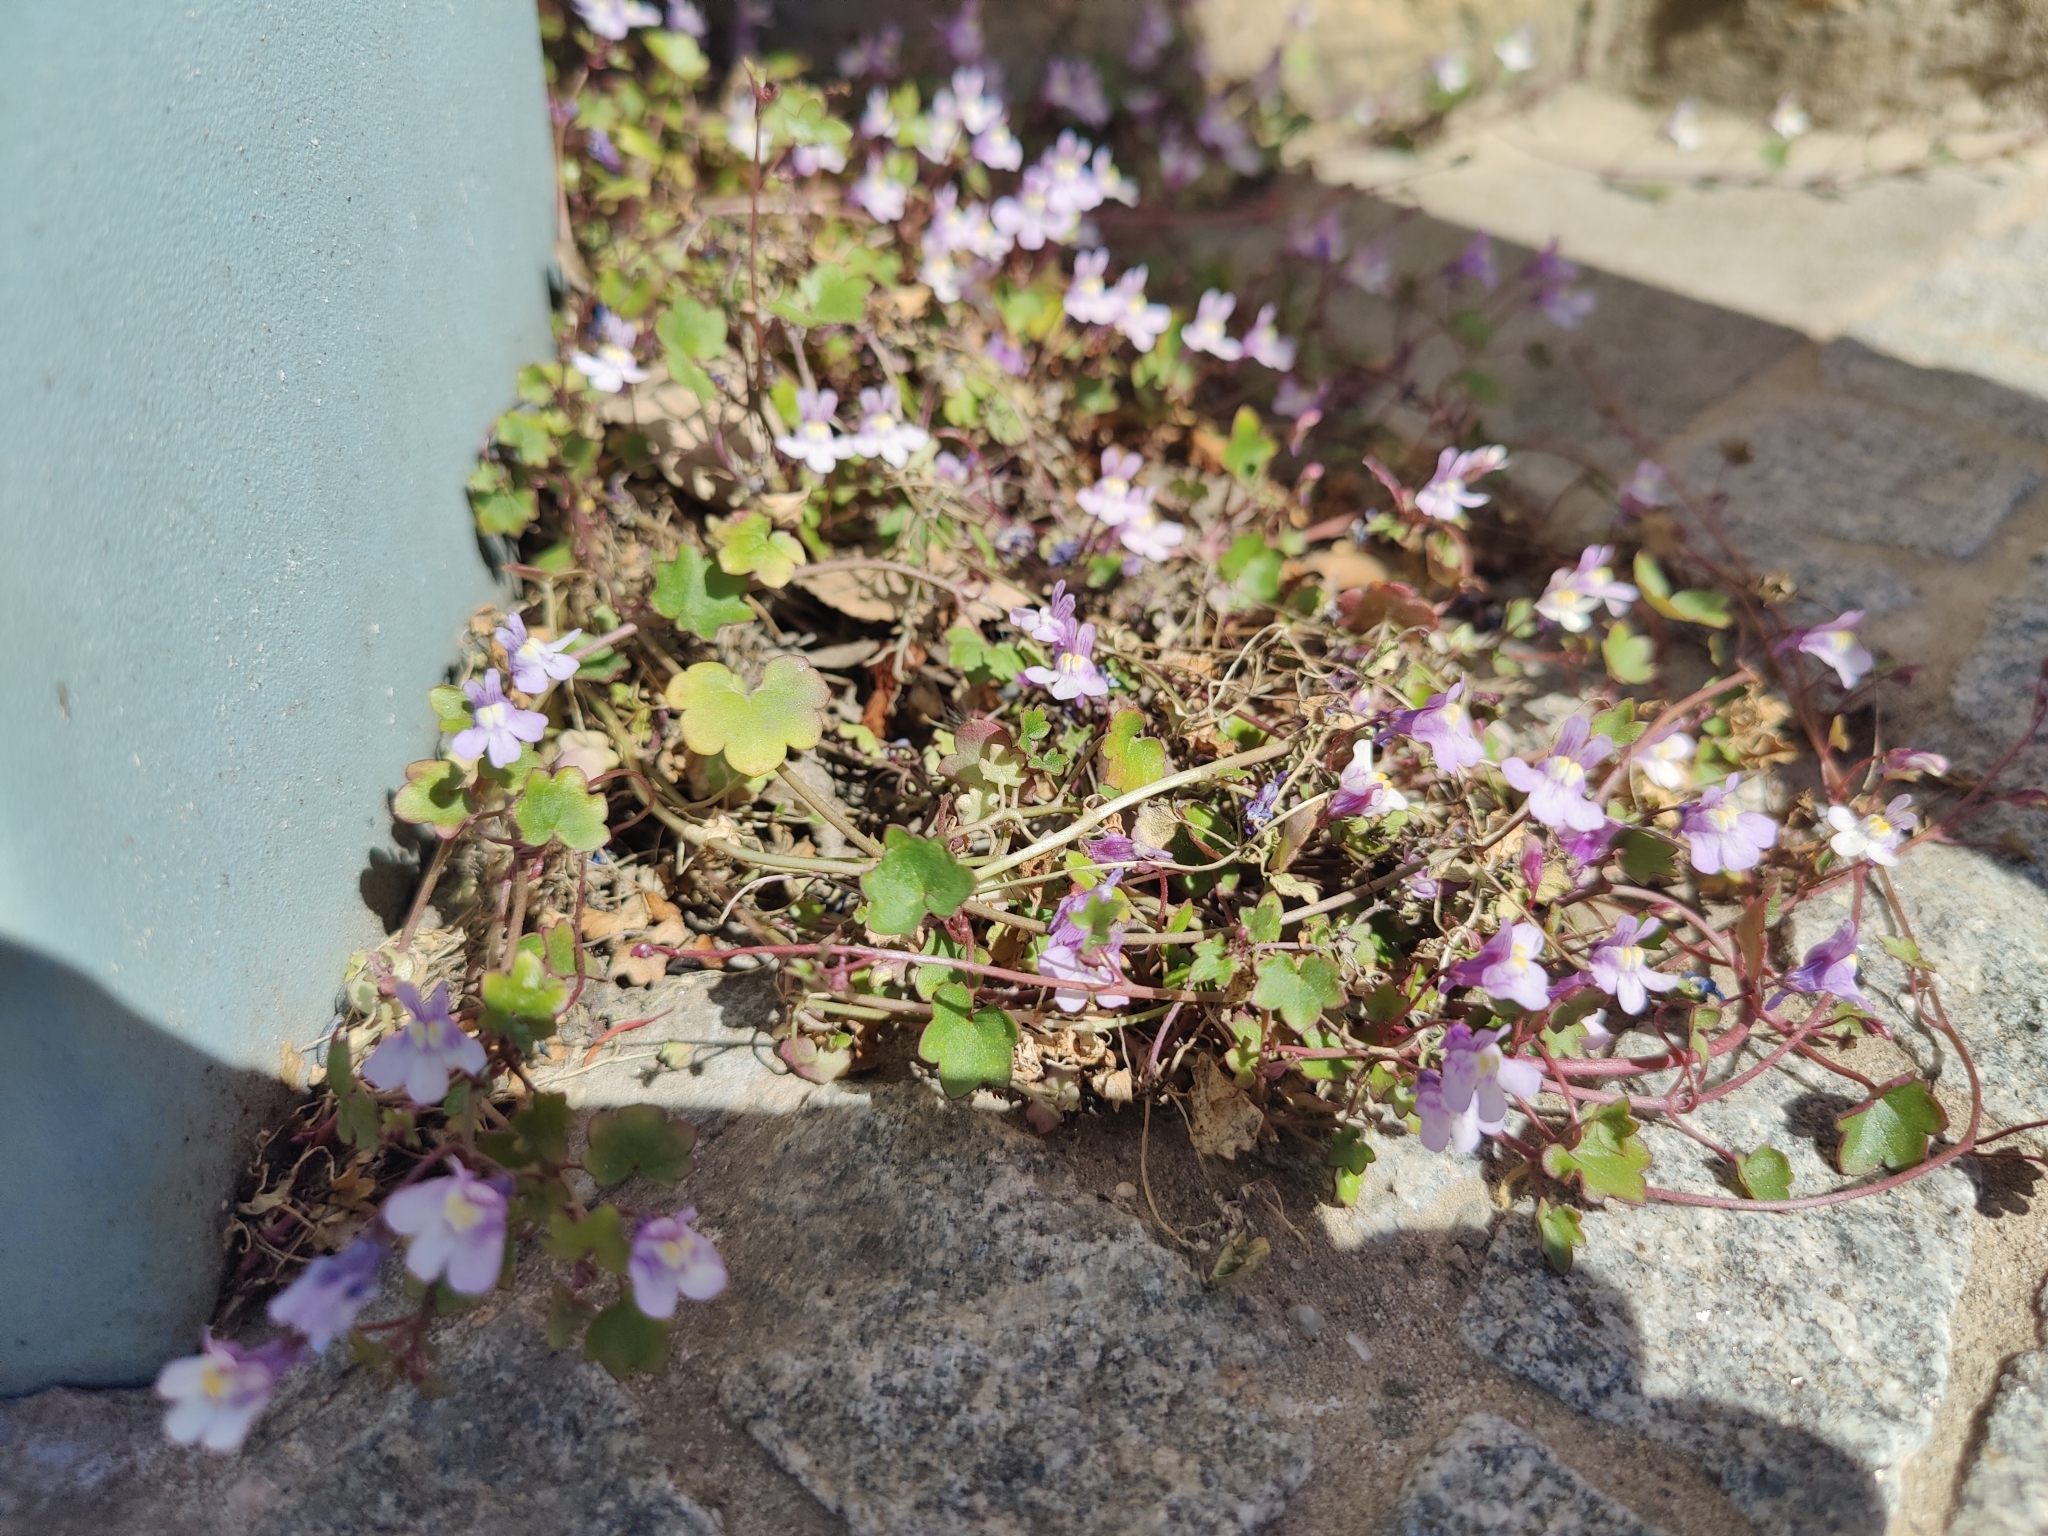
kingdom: Plantae
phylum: Tracheophyta
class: Magnoliopsida
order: Lamiales
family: Plantaginaceae
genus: Cymbalaria
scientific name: Cymbalaria muralis
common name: Ivy-leaved toadflax
